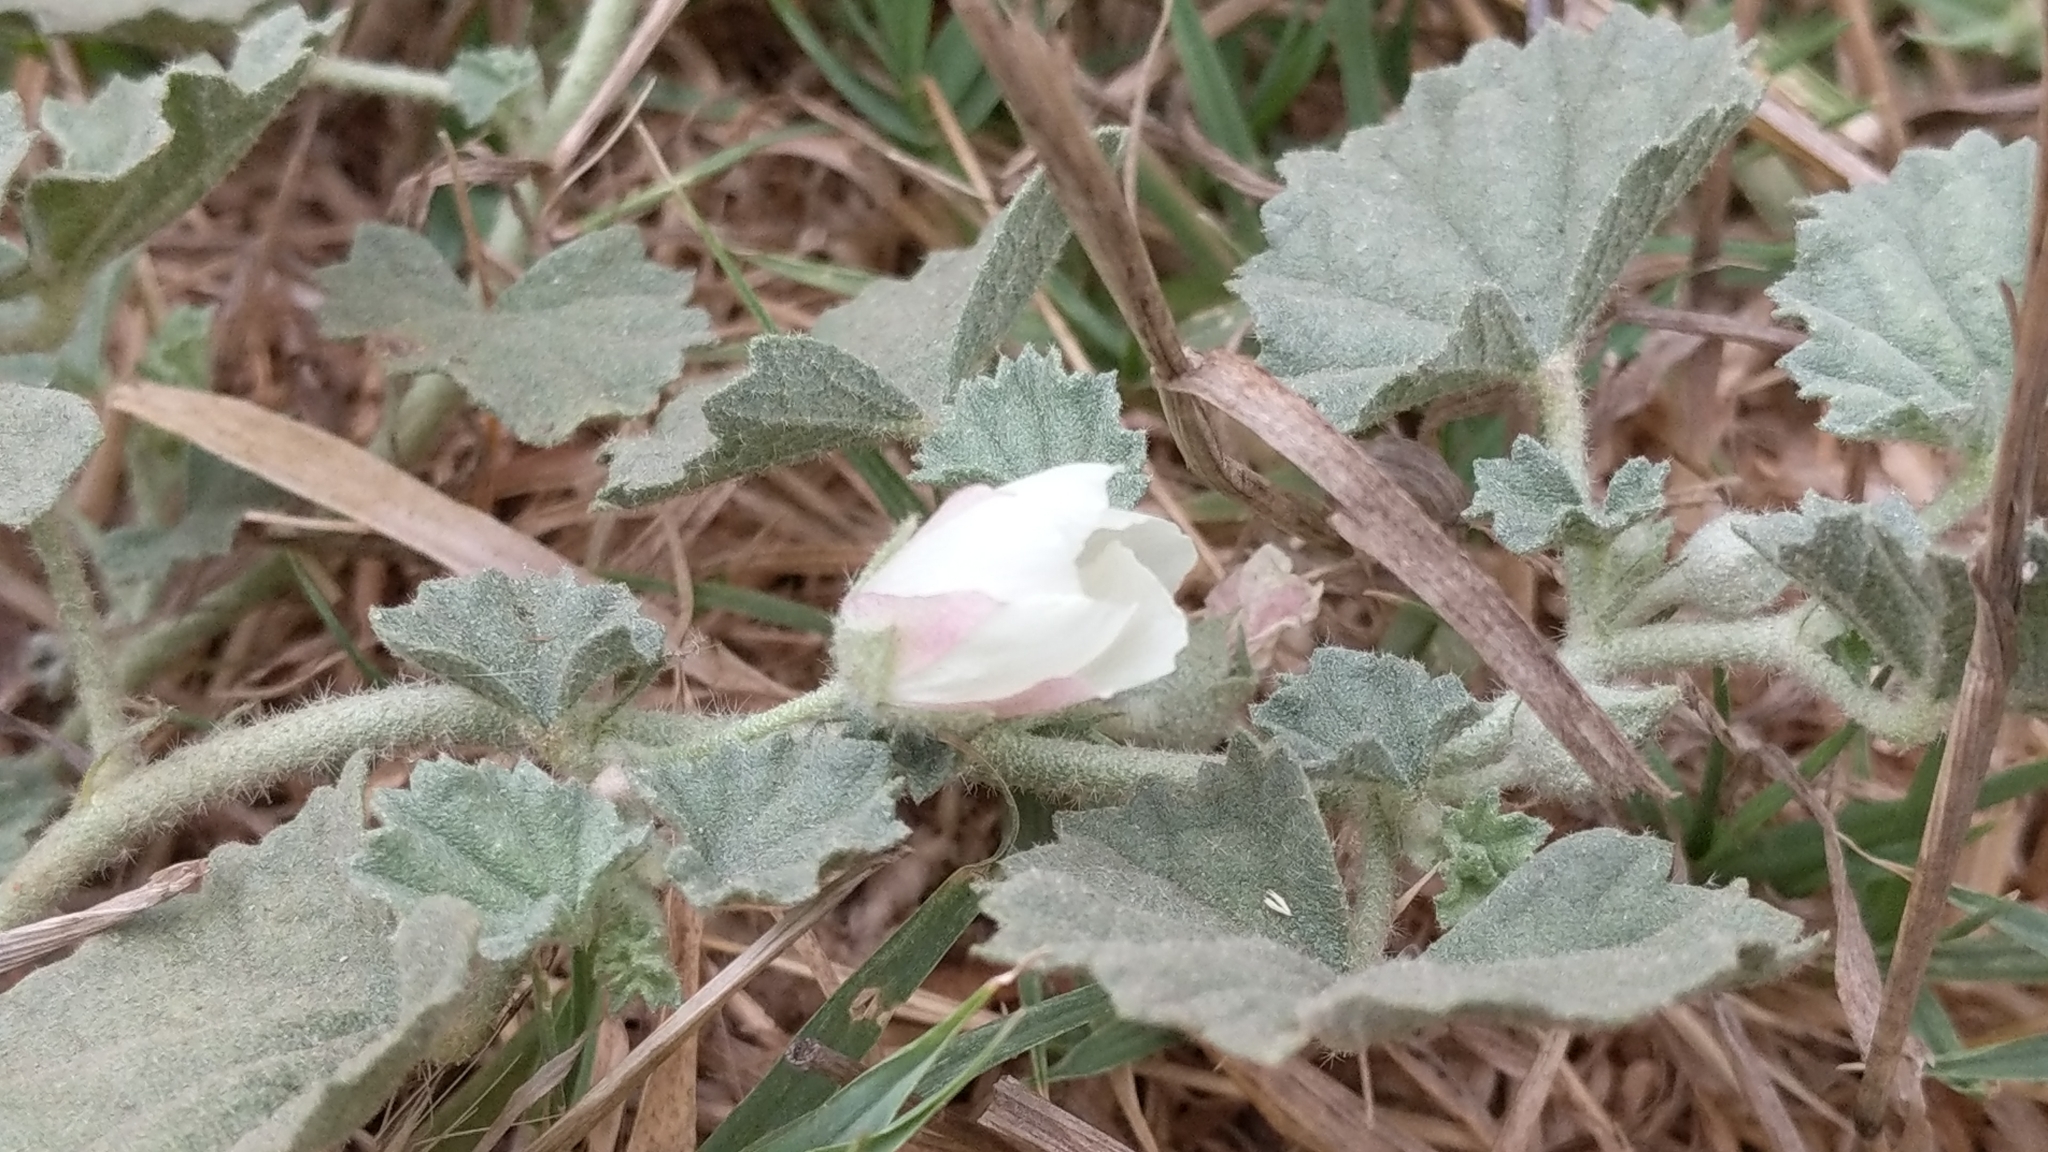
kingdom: Plantae
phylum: Tracheophyta
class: Magnoliopsida
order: Malvales
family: Malvaceae
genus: Malvella
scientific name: Malvella leprosa
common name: Alkali-mallow
